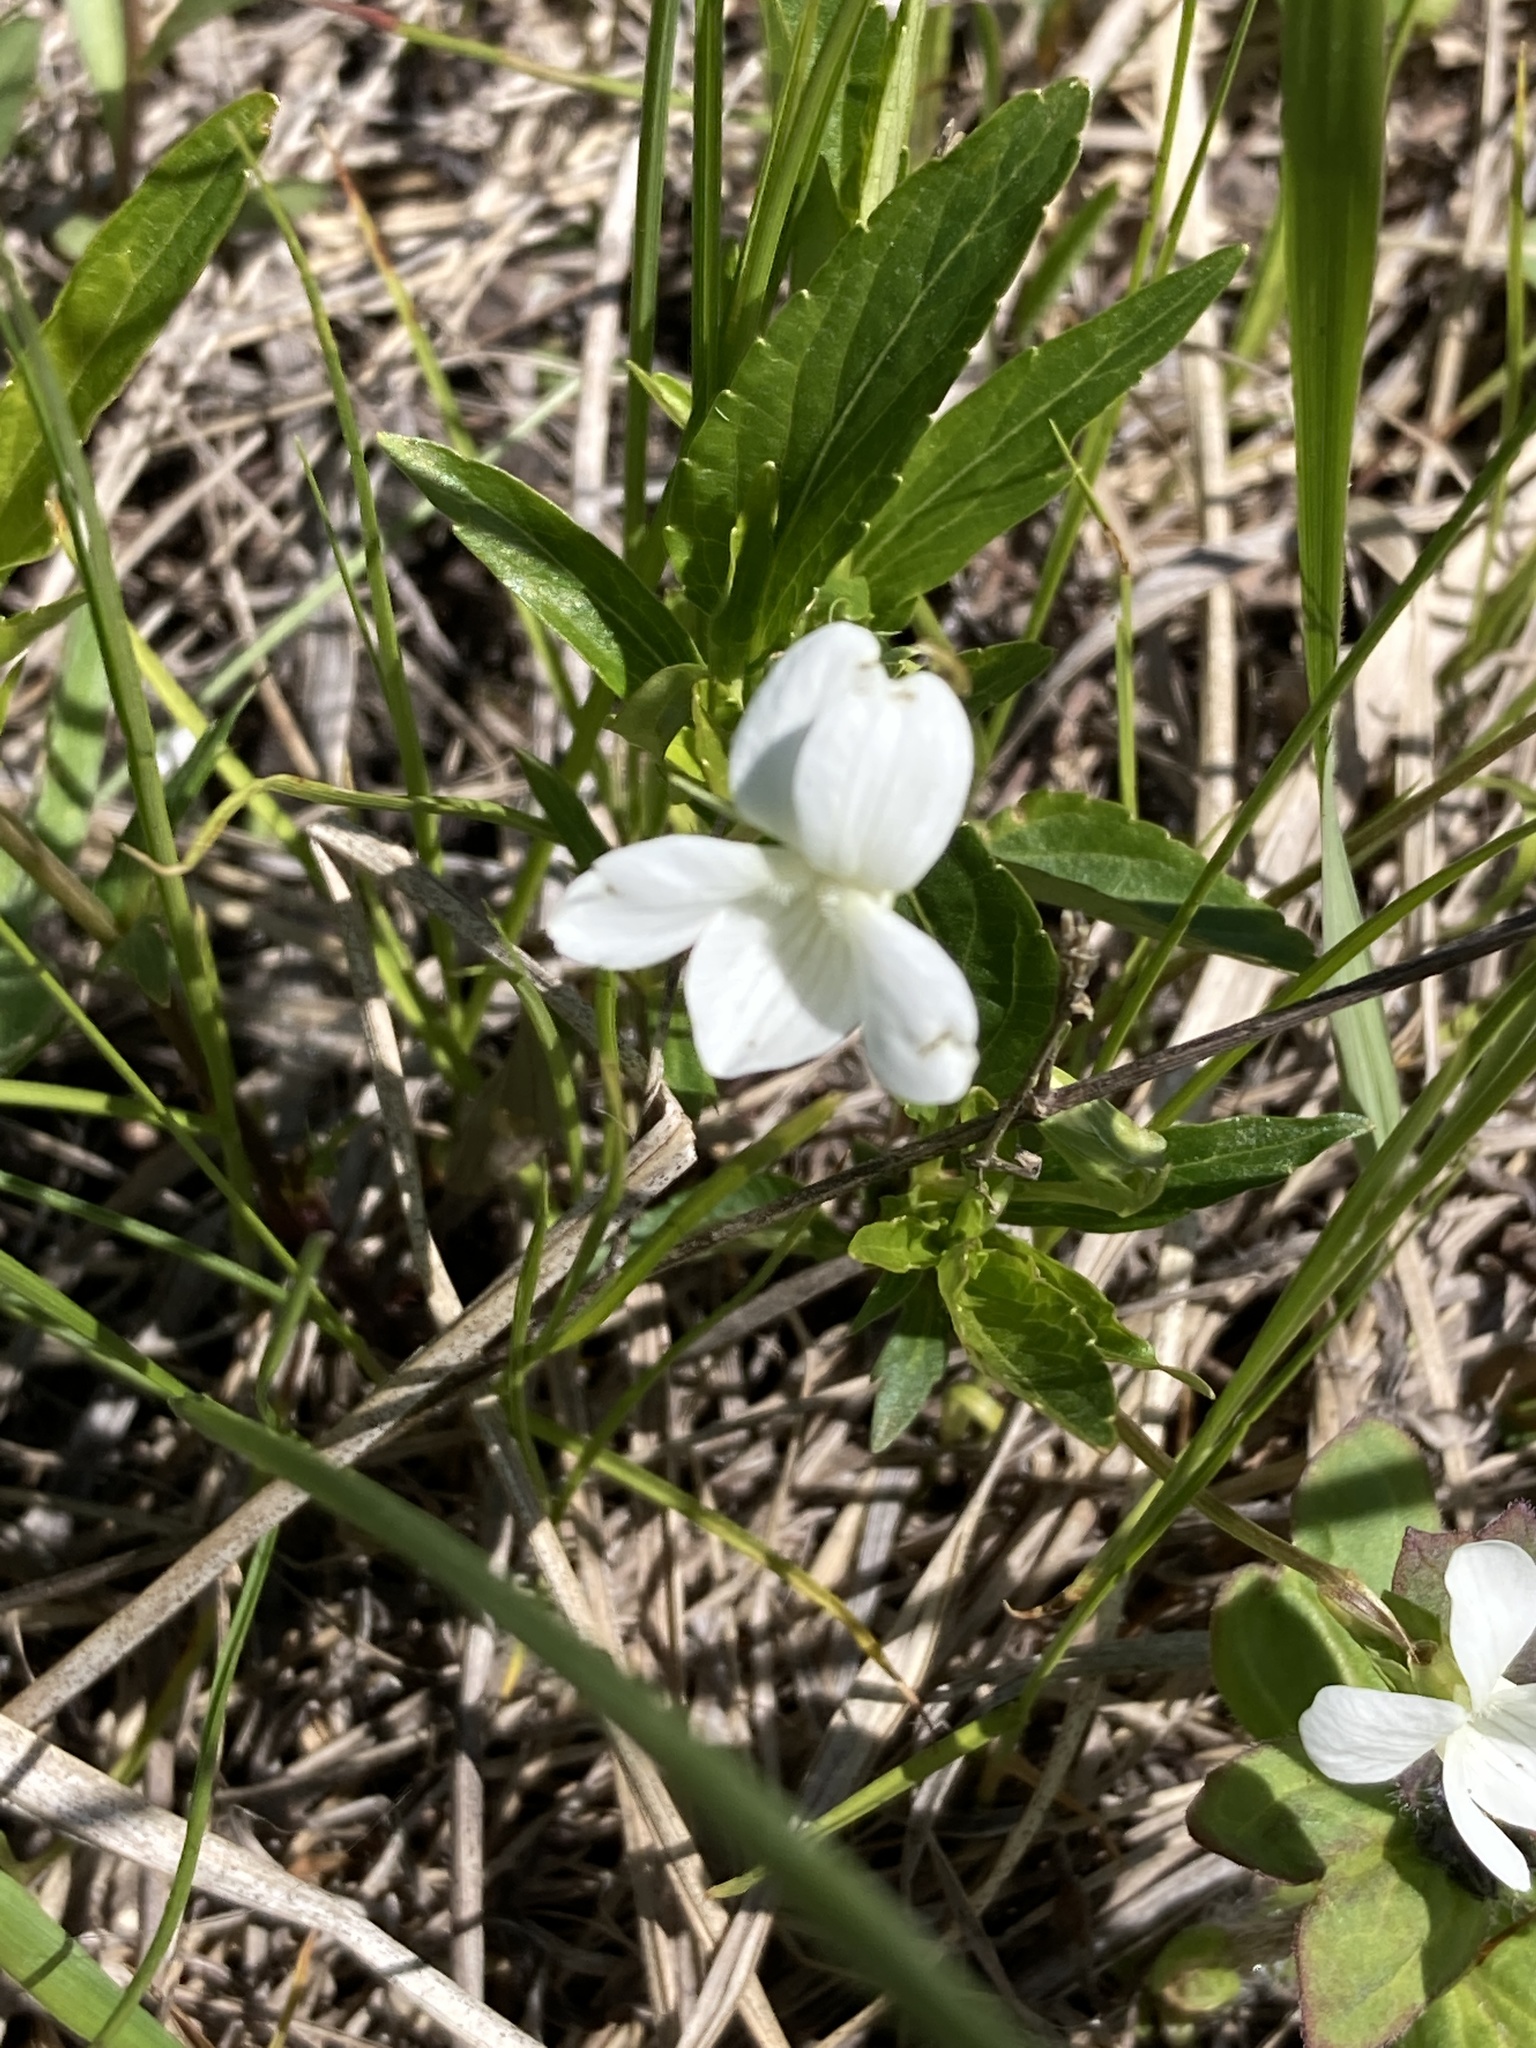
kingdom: Plantae
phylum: Tracheophyta
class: Magnoliopsida
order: Malpighiales
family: Violaceae
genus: Viola
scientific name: Viola pumila
